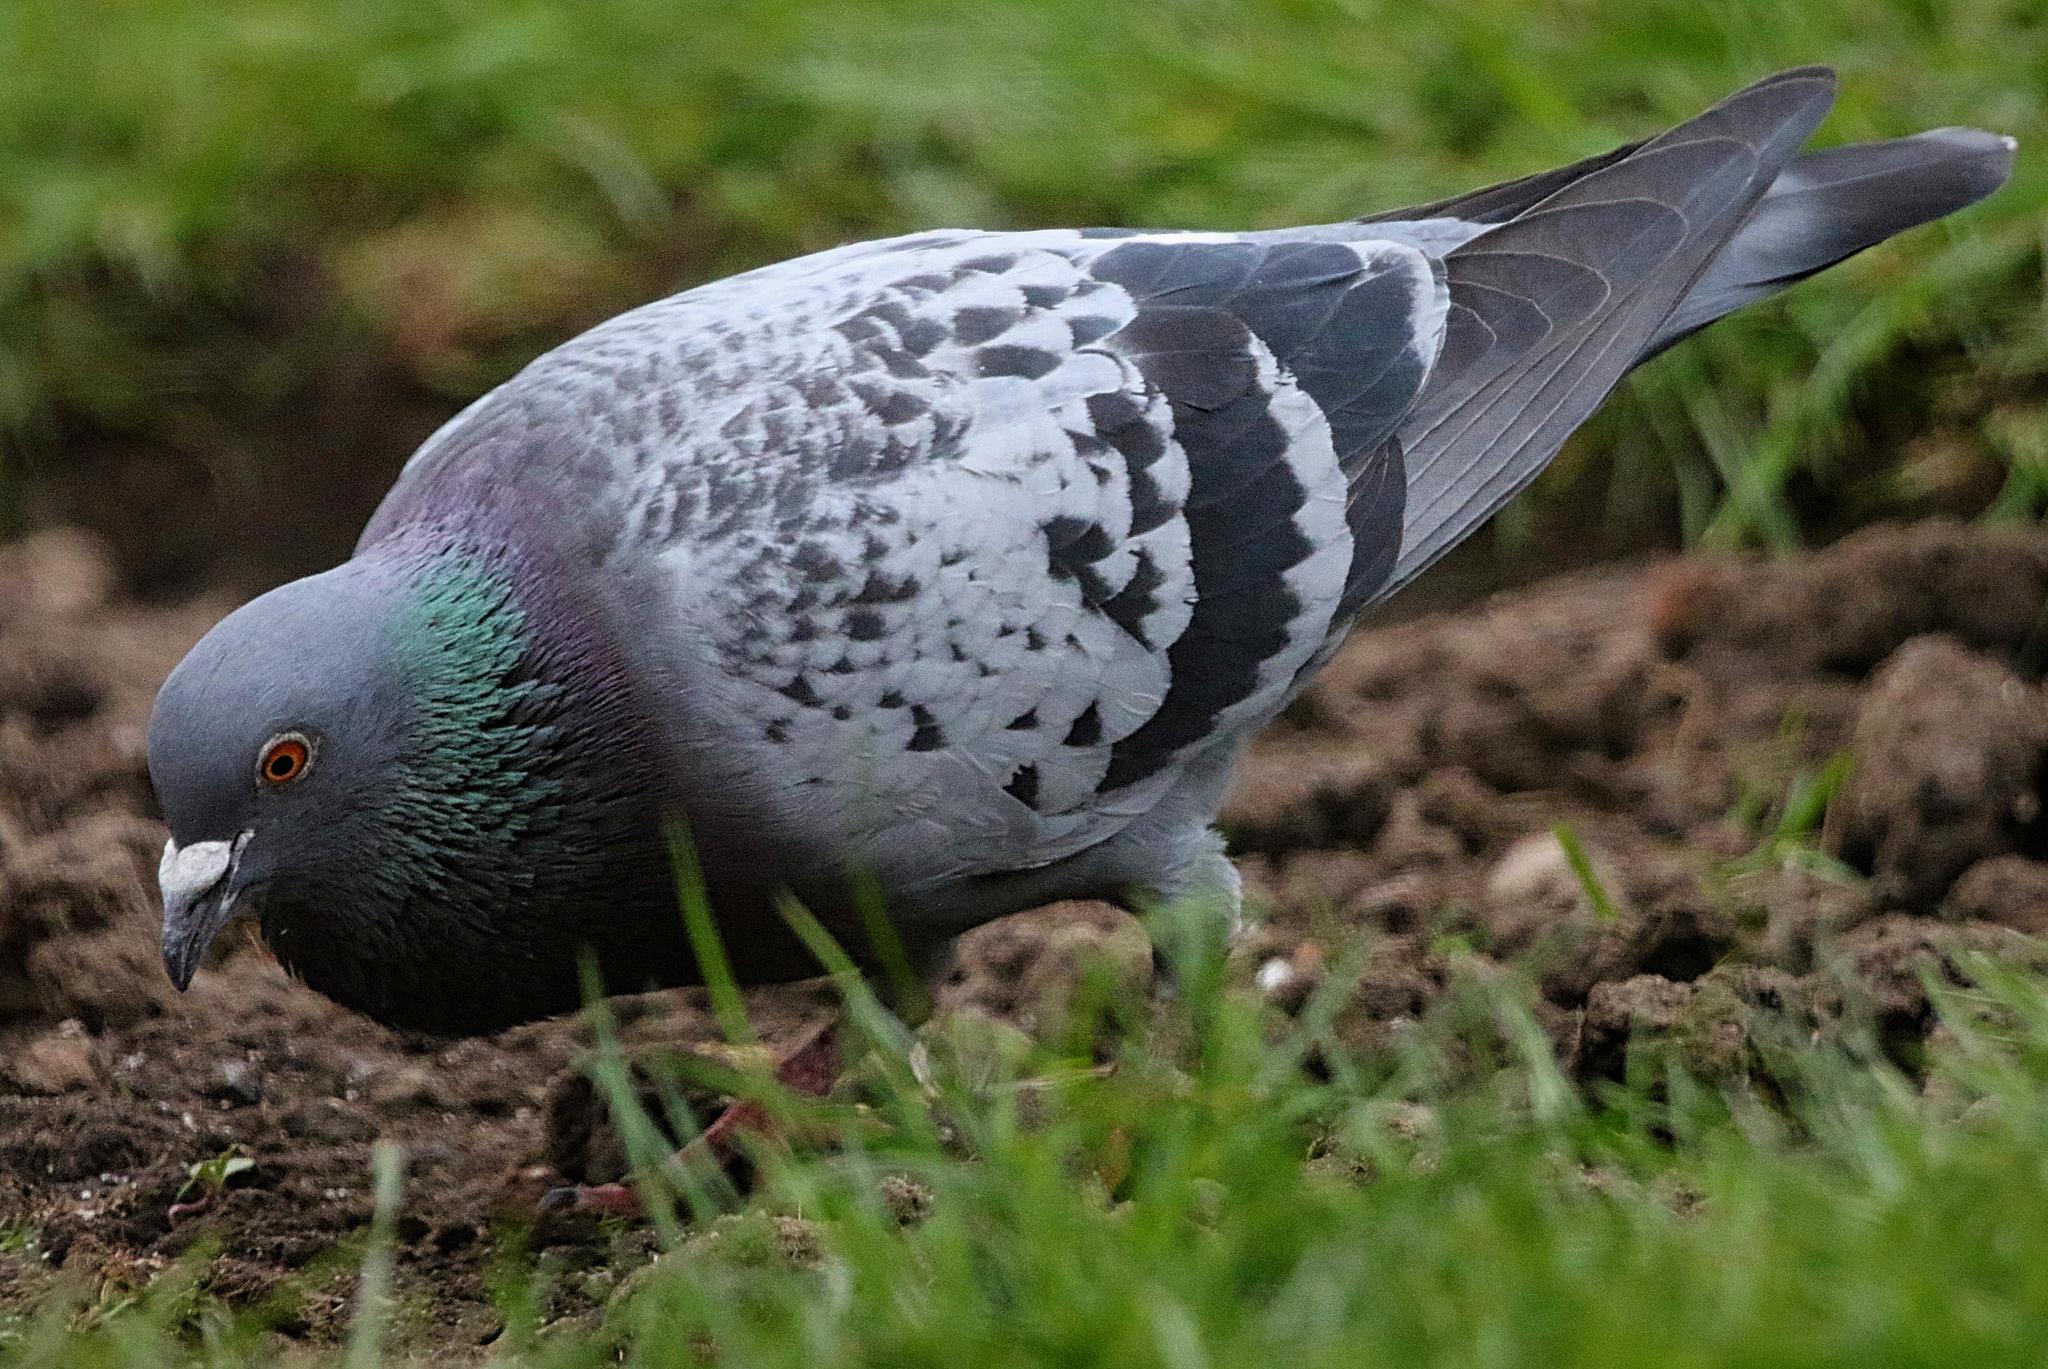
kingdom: Animalia
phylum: Chordata
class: Aves
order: Columbiformes
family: Columbidae
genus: Columba
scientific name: Columba livia
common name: Rock pigeon
